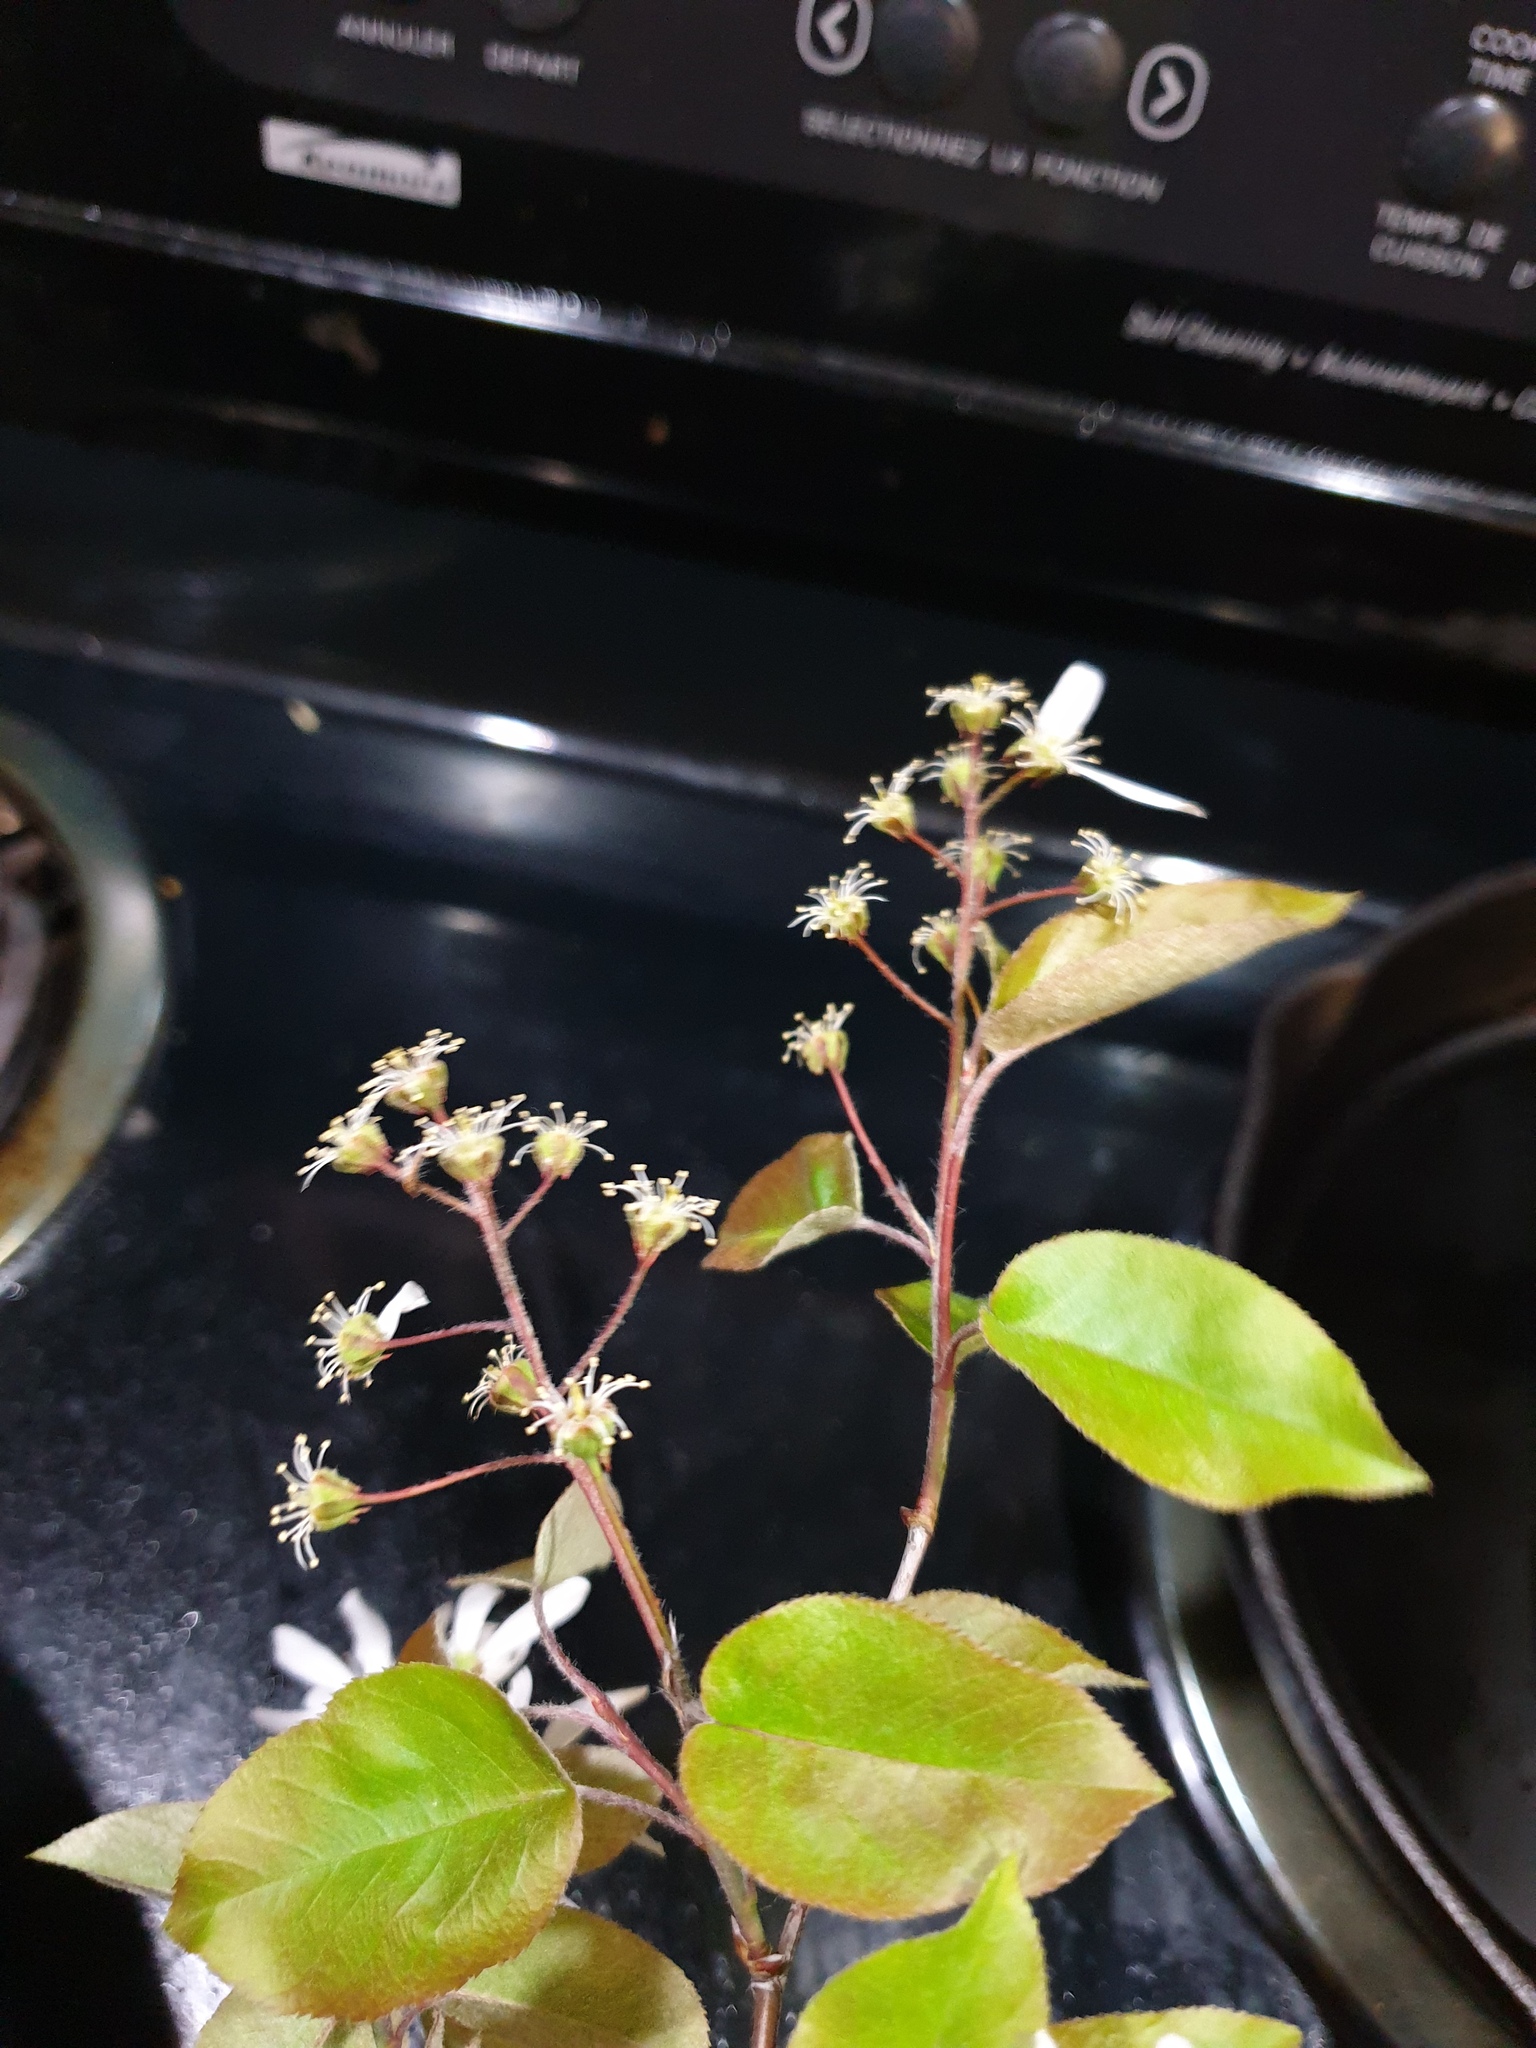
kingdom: Plantae
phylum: Tracheophyta
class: Magnoliopsida
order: Rosales
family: Rosaceae
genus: Amelanchier
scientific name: Amelanchier arborea
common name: Downy serviceberry
